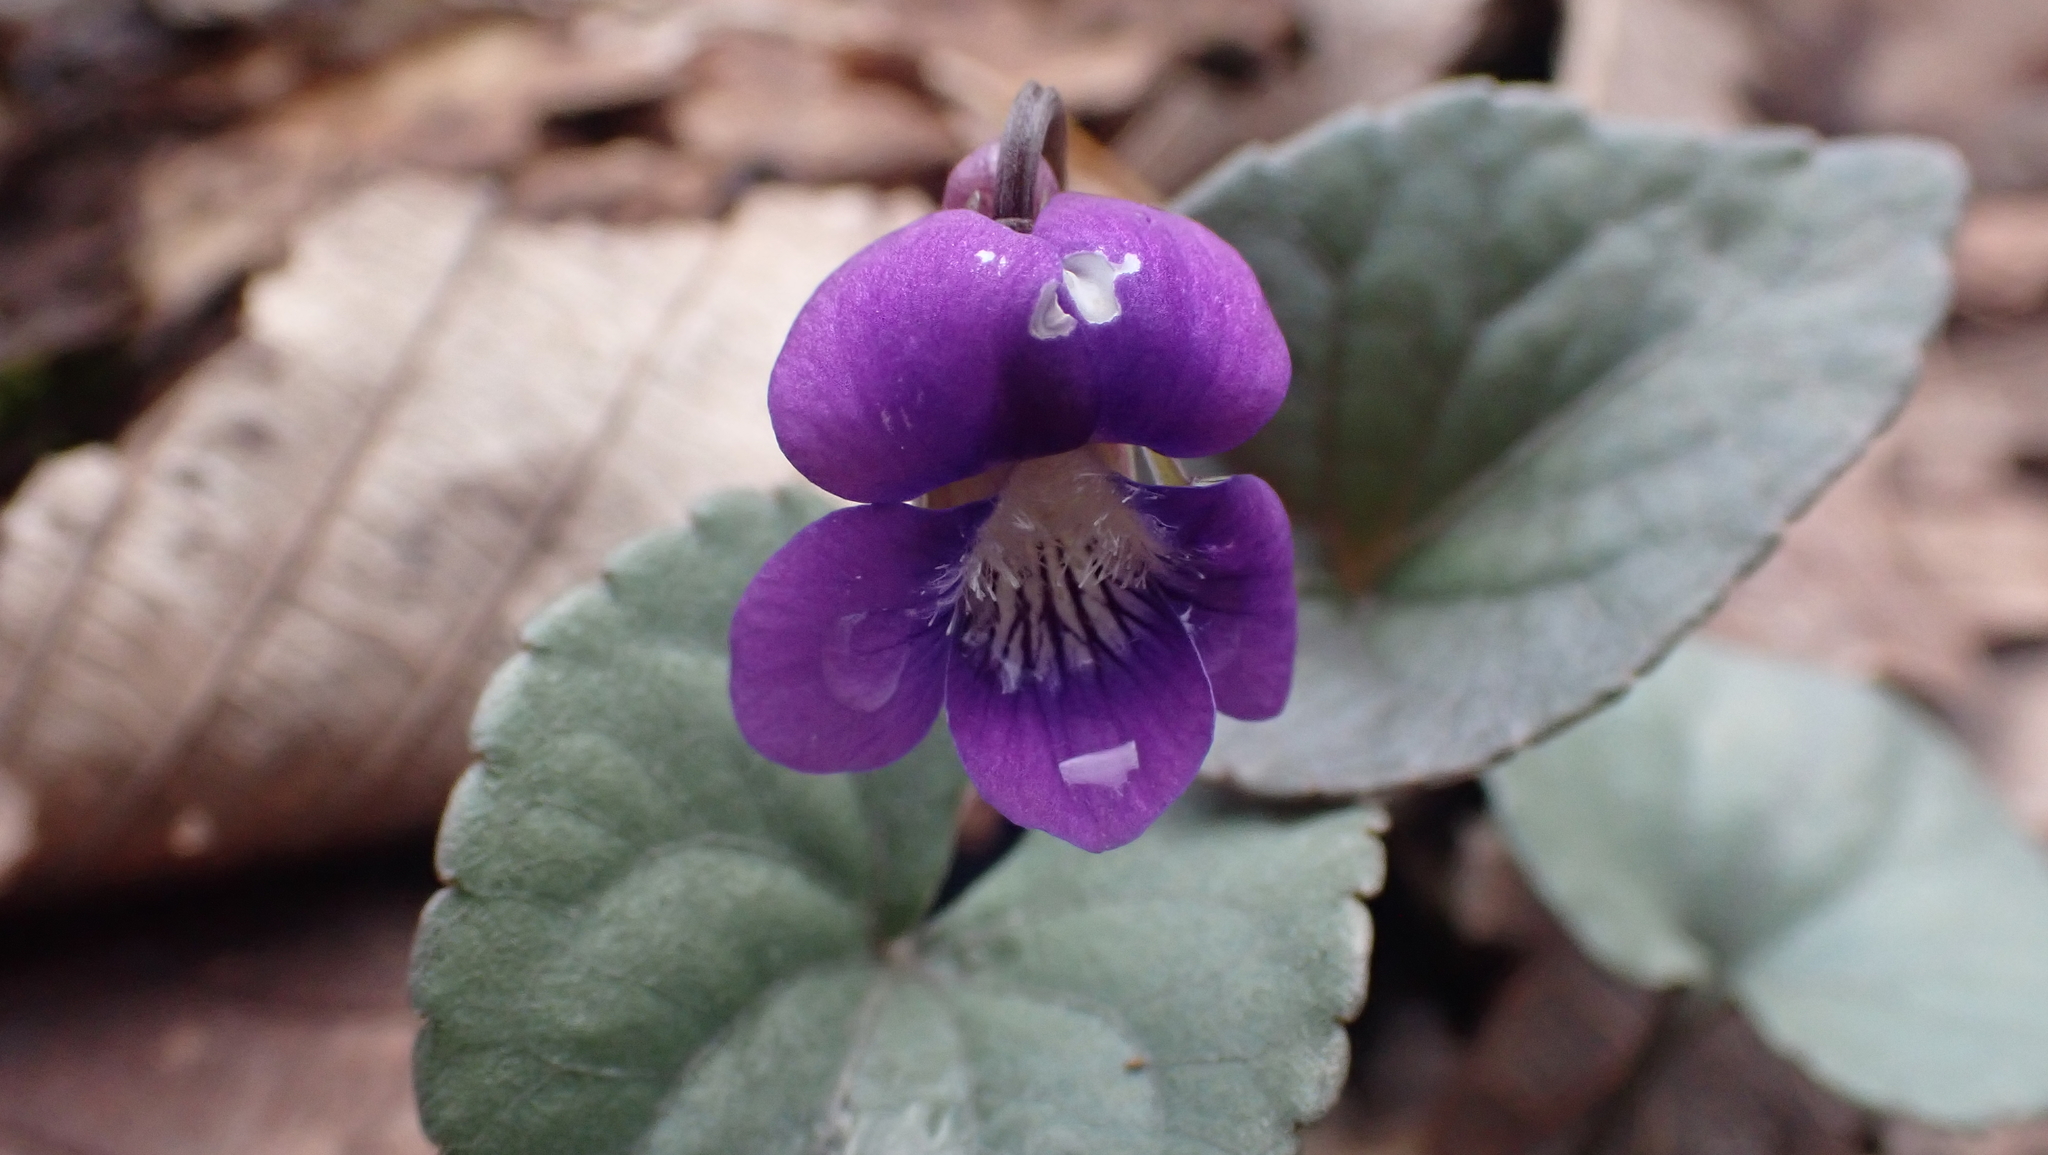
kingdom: Plantae
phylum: Tracheophyta
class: Magnoliopsida
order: Malpighiales
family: Violaceae
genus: Viola
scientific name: Viola hirsutula
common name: Southern wood violet
